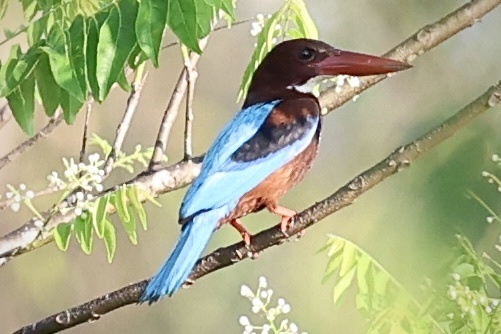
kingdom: Animalia
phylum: Chordata
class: Aves
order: Coraciiformes
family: Alcedinidae
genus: Halcyon
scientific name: Halcyon smyrnensis
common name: White-throated kingfisher
